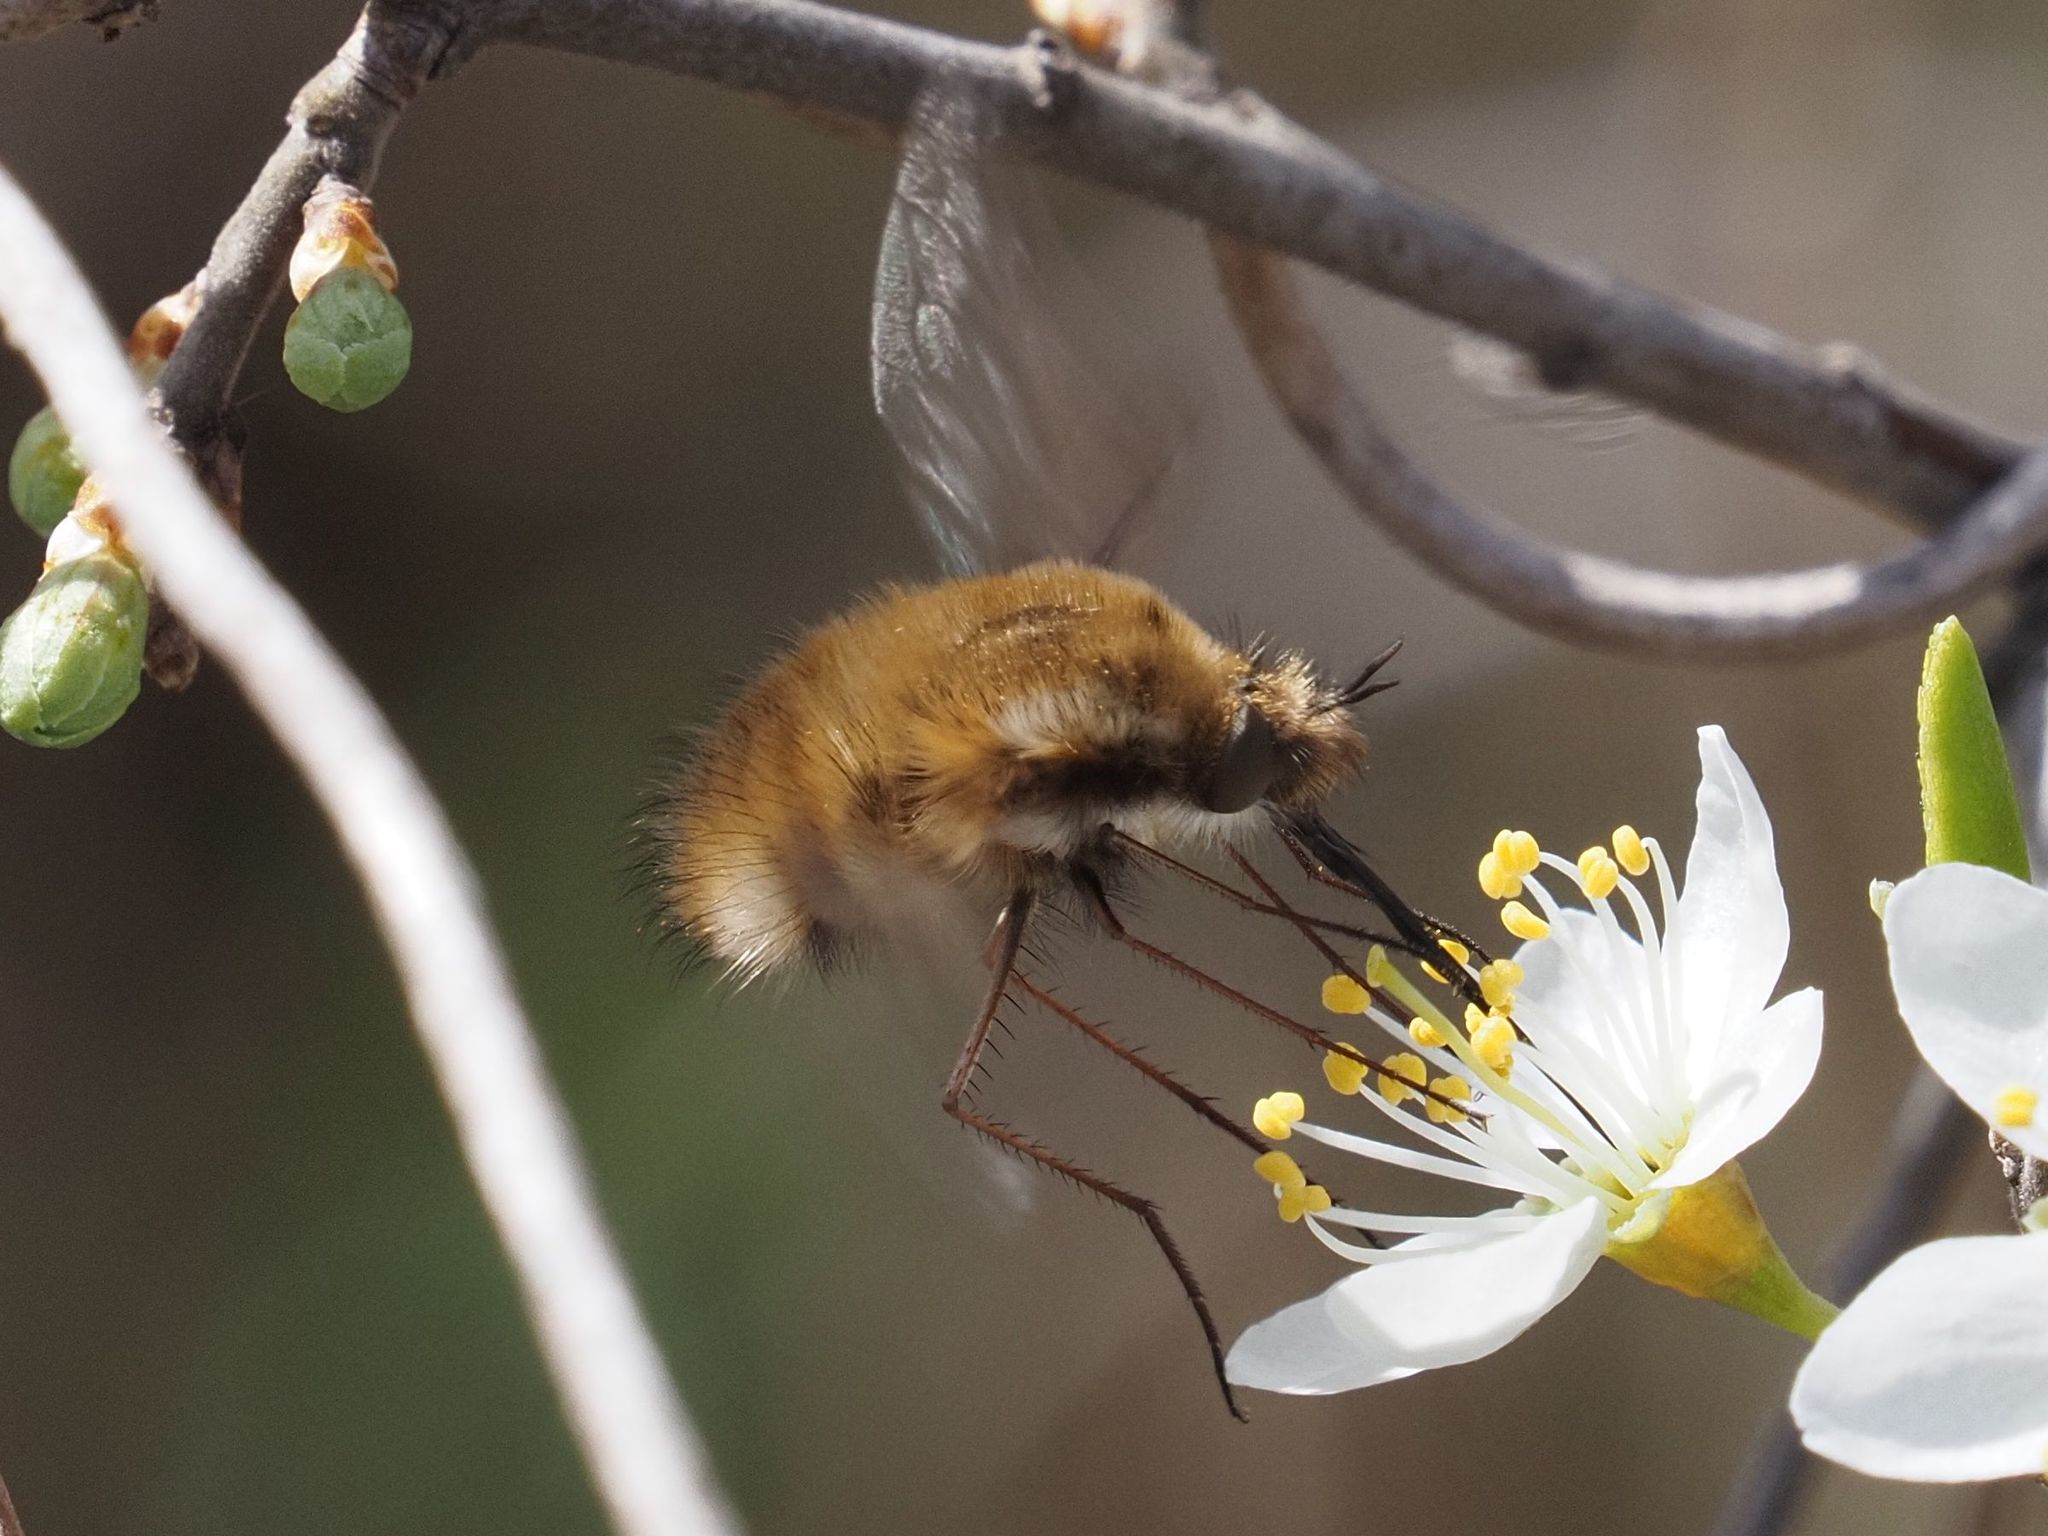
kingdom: Animalia
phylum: Arthropoda
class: Insecta
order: Diptera
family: Bombyliidae
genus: Bombylius
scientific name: Bombylius major
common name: Bee fly
